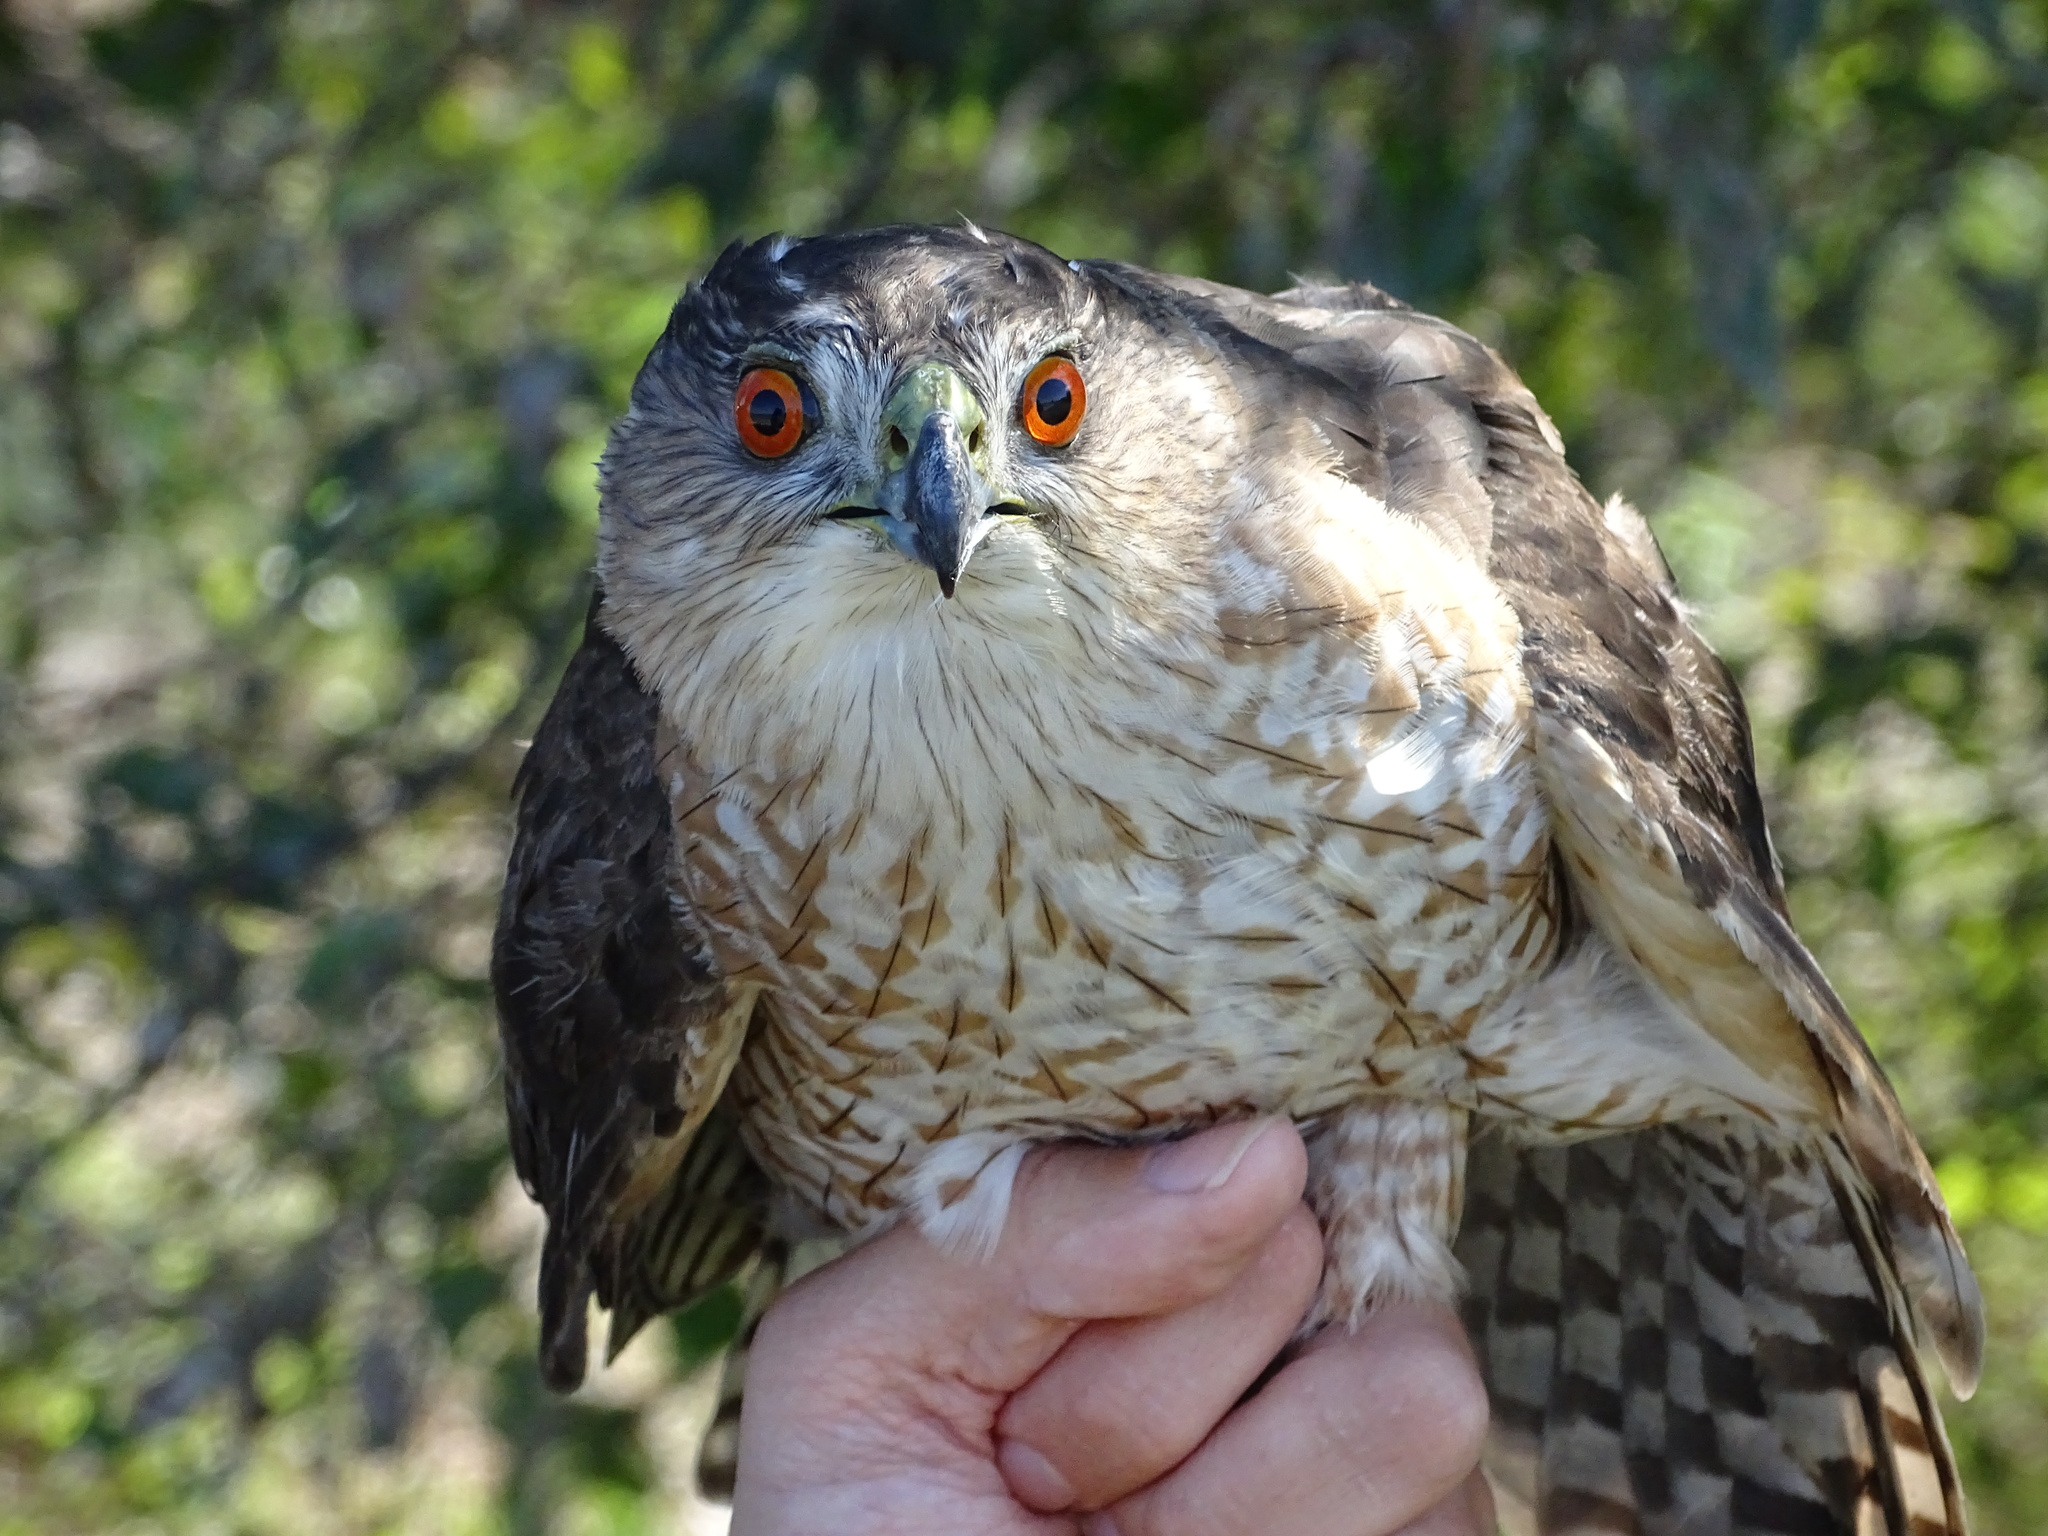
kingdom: Animalia
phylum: Chordata
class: Aves
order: Accipitriformes
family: Accipitridae
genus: Accipiter
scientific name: Accipiter cooperii
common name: Cooper's hawk
